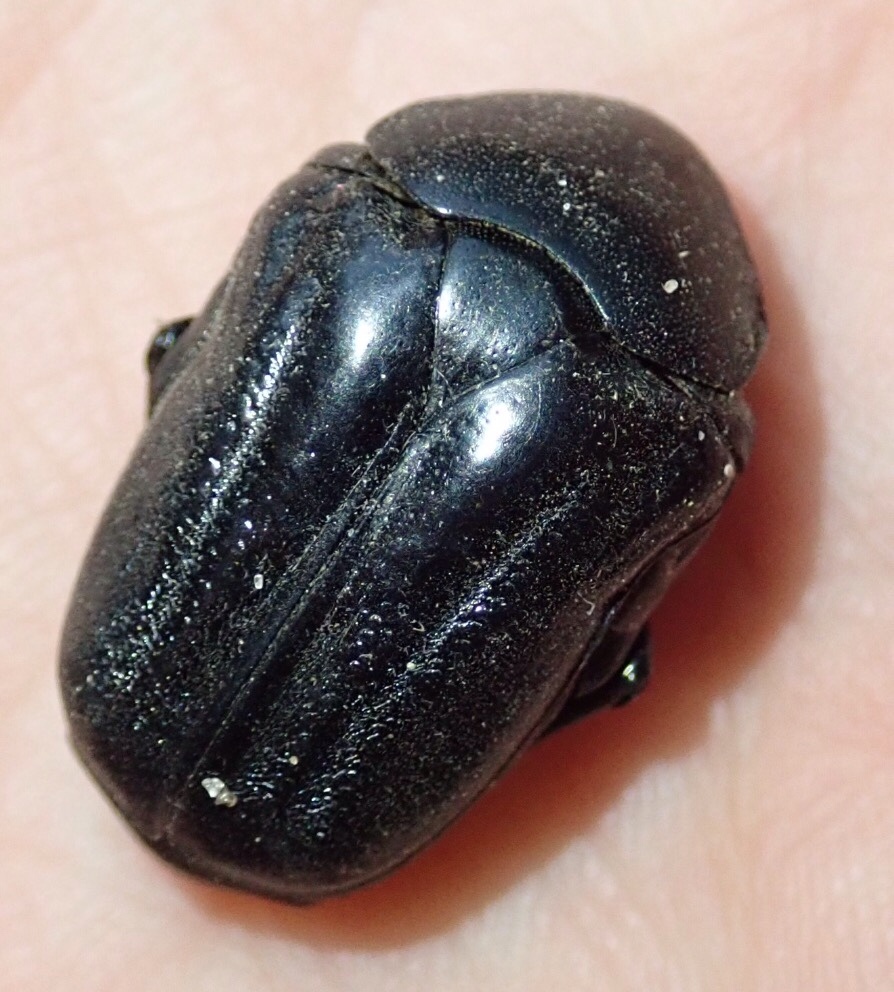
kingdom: Animalia
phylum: Arthropoda
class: Insecta
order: Coleoptera
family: Scarabaeidae
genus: Oplostomus
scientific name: Oplostomus fuligineus
